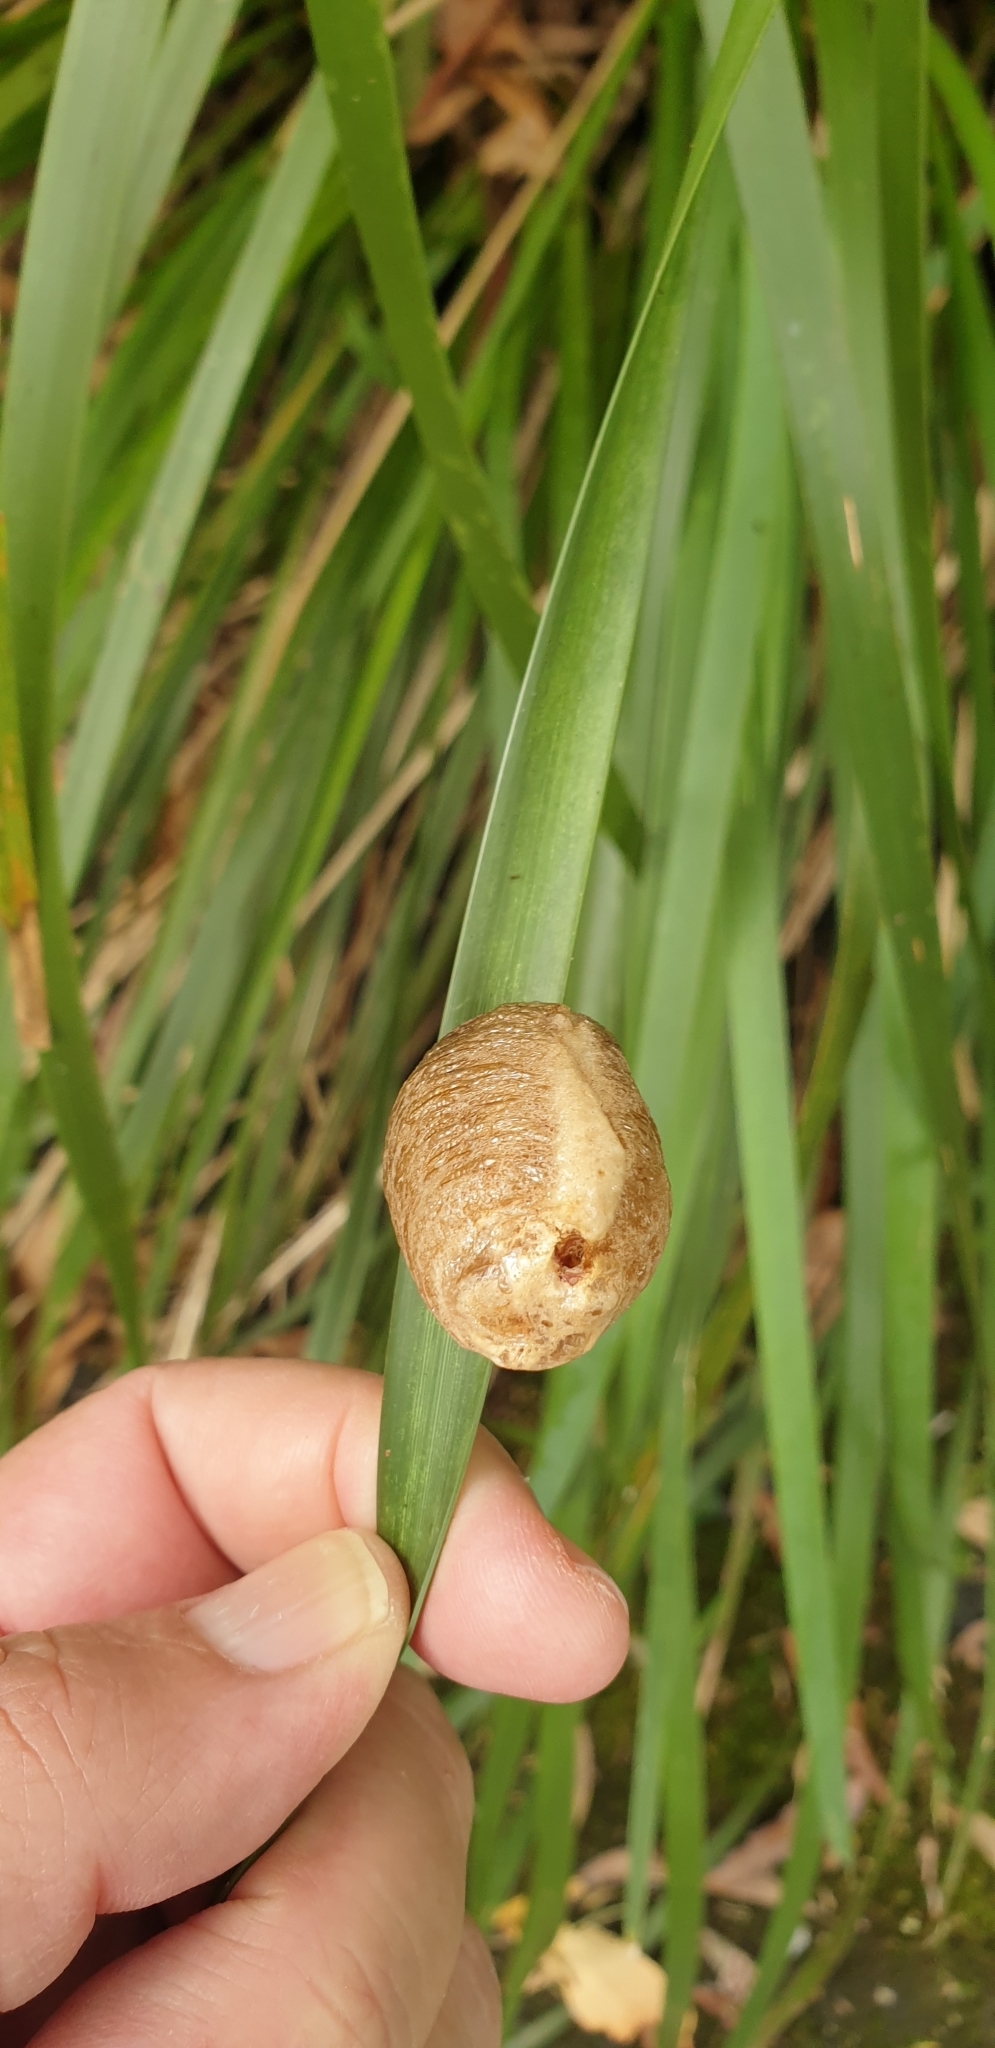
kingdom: Animalia
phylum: Arthropoda
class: Insecta
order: Mantodea
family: Mantidae
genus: Archimantis
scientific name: Archimantis latistyla
